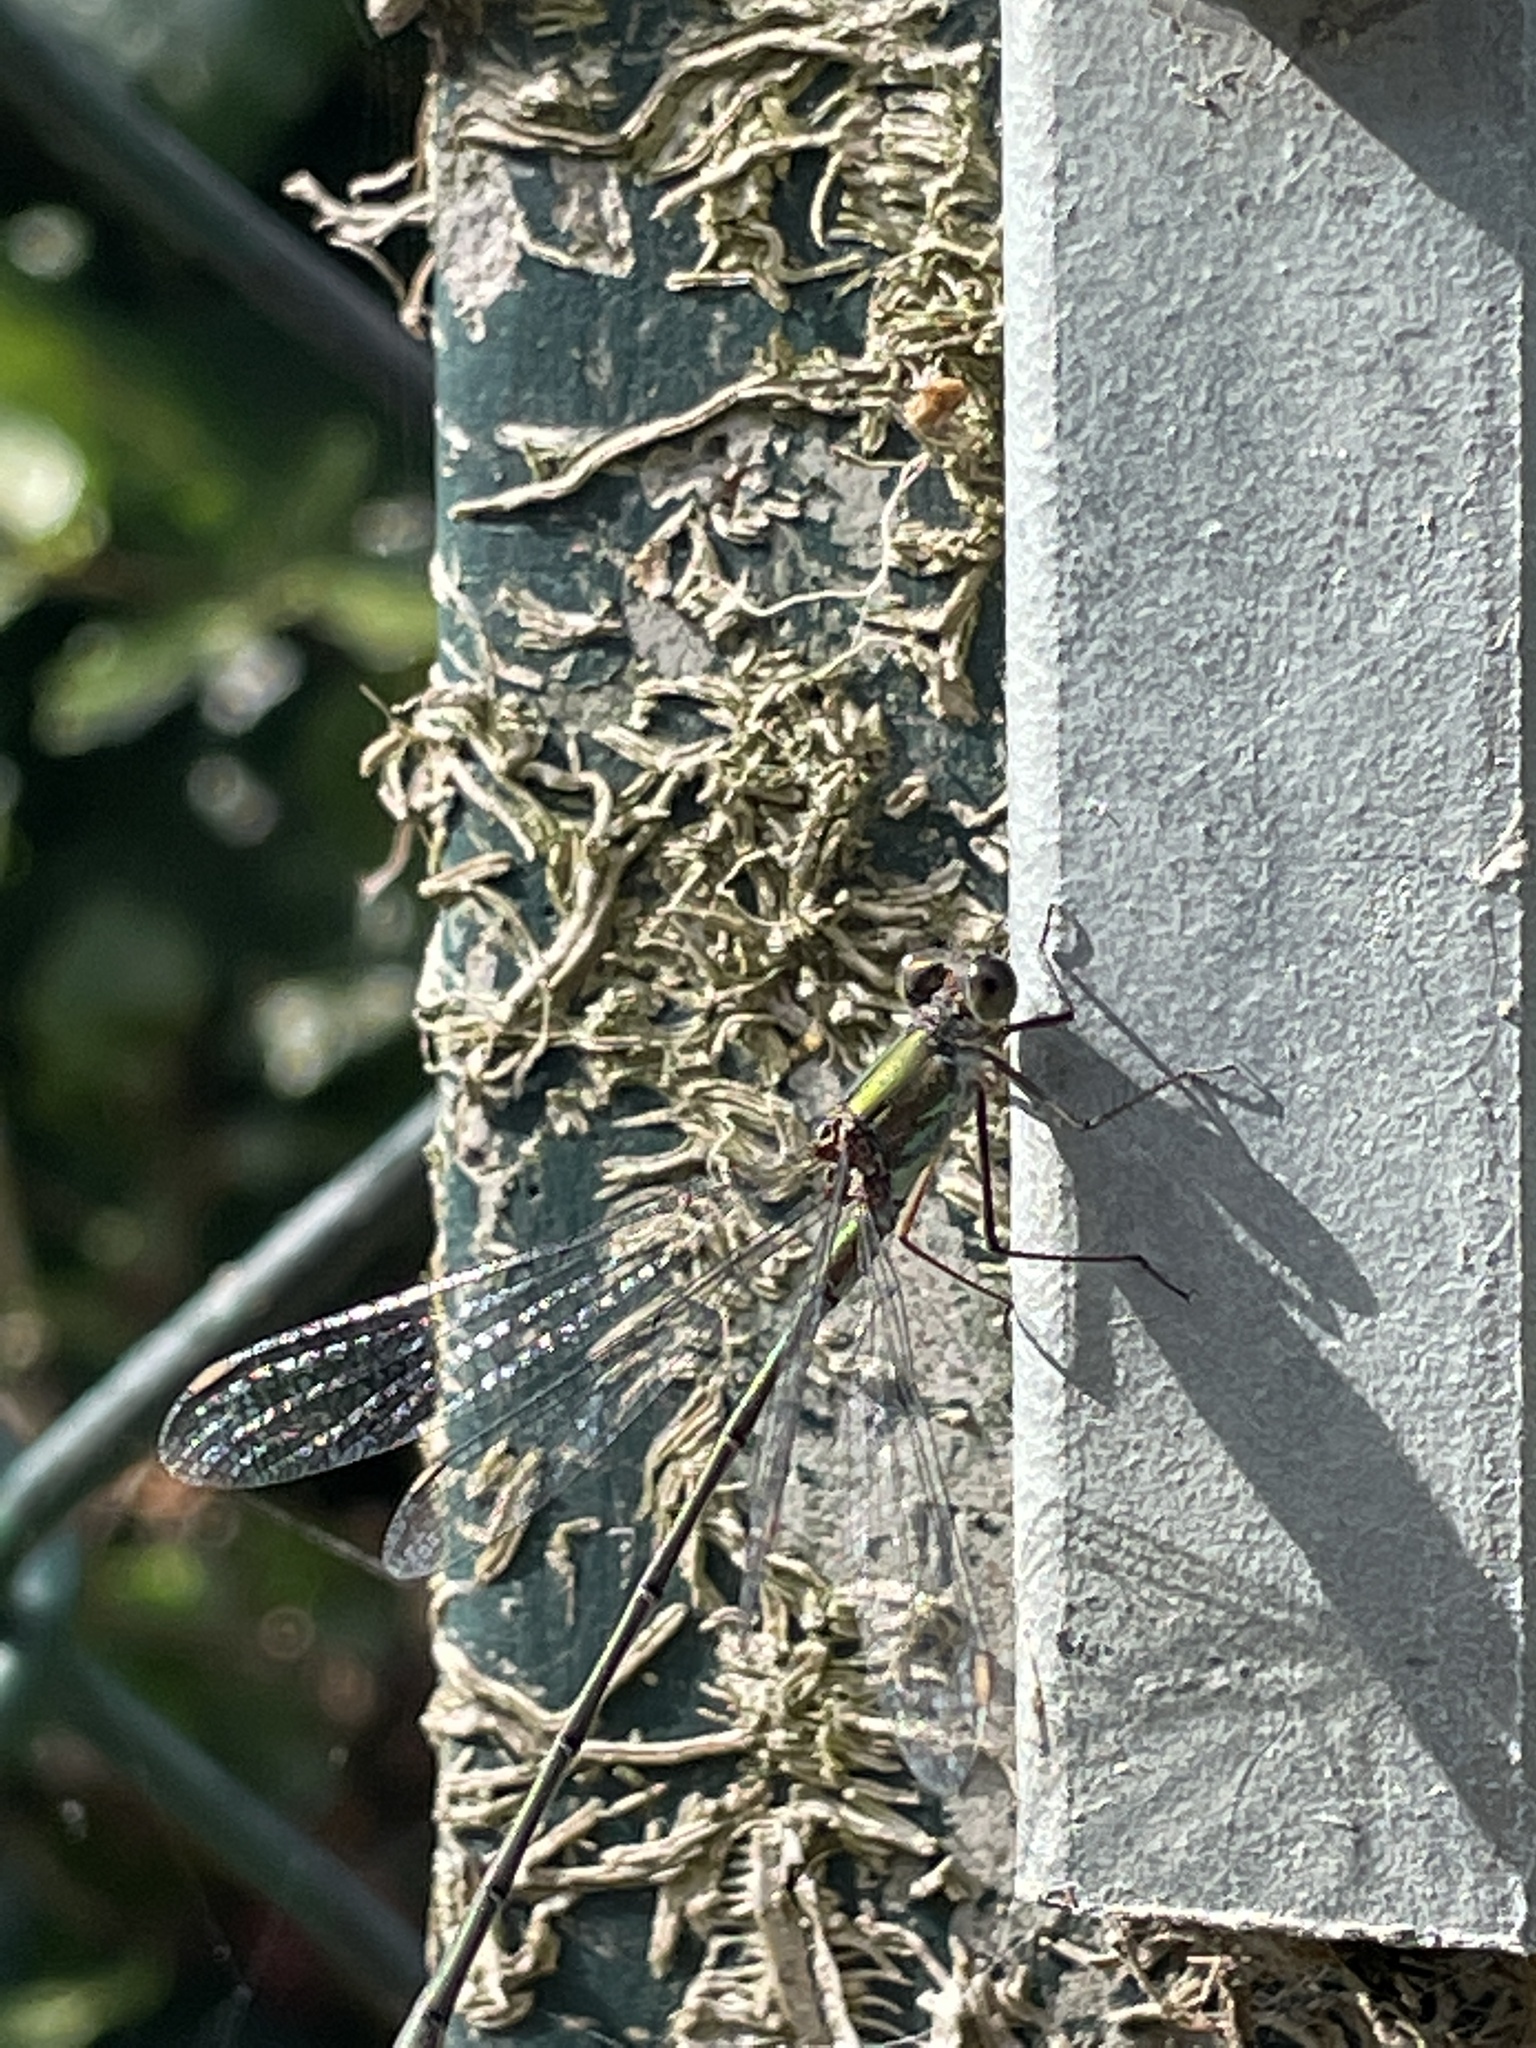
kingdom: Animalia
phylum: Arthropoda
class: Insecta
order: Odonata
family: Lestidae
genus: Chalcolestes
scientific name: Chalcolestes viridis
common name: Green emerald damselfly
